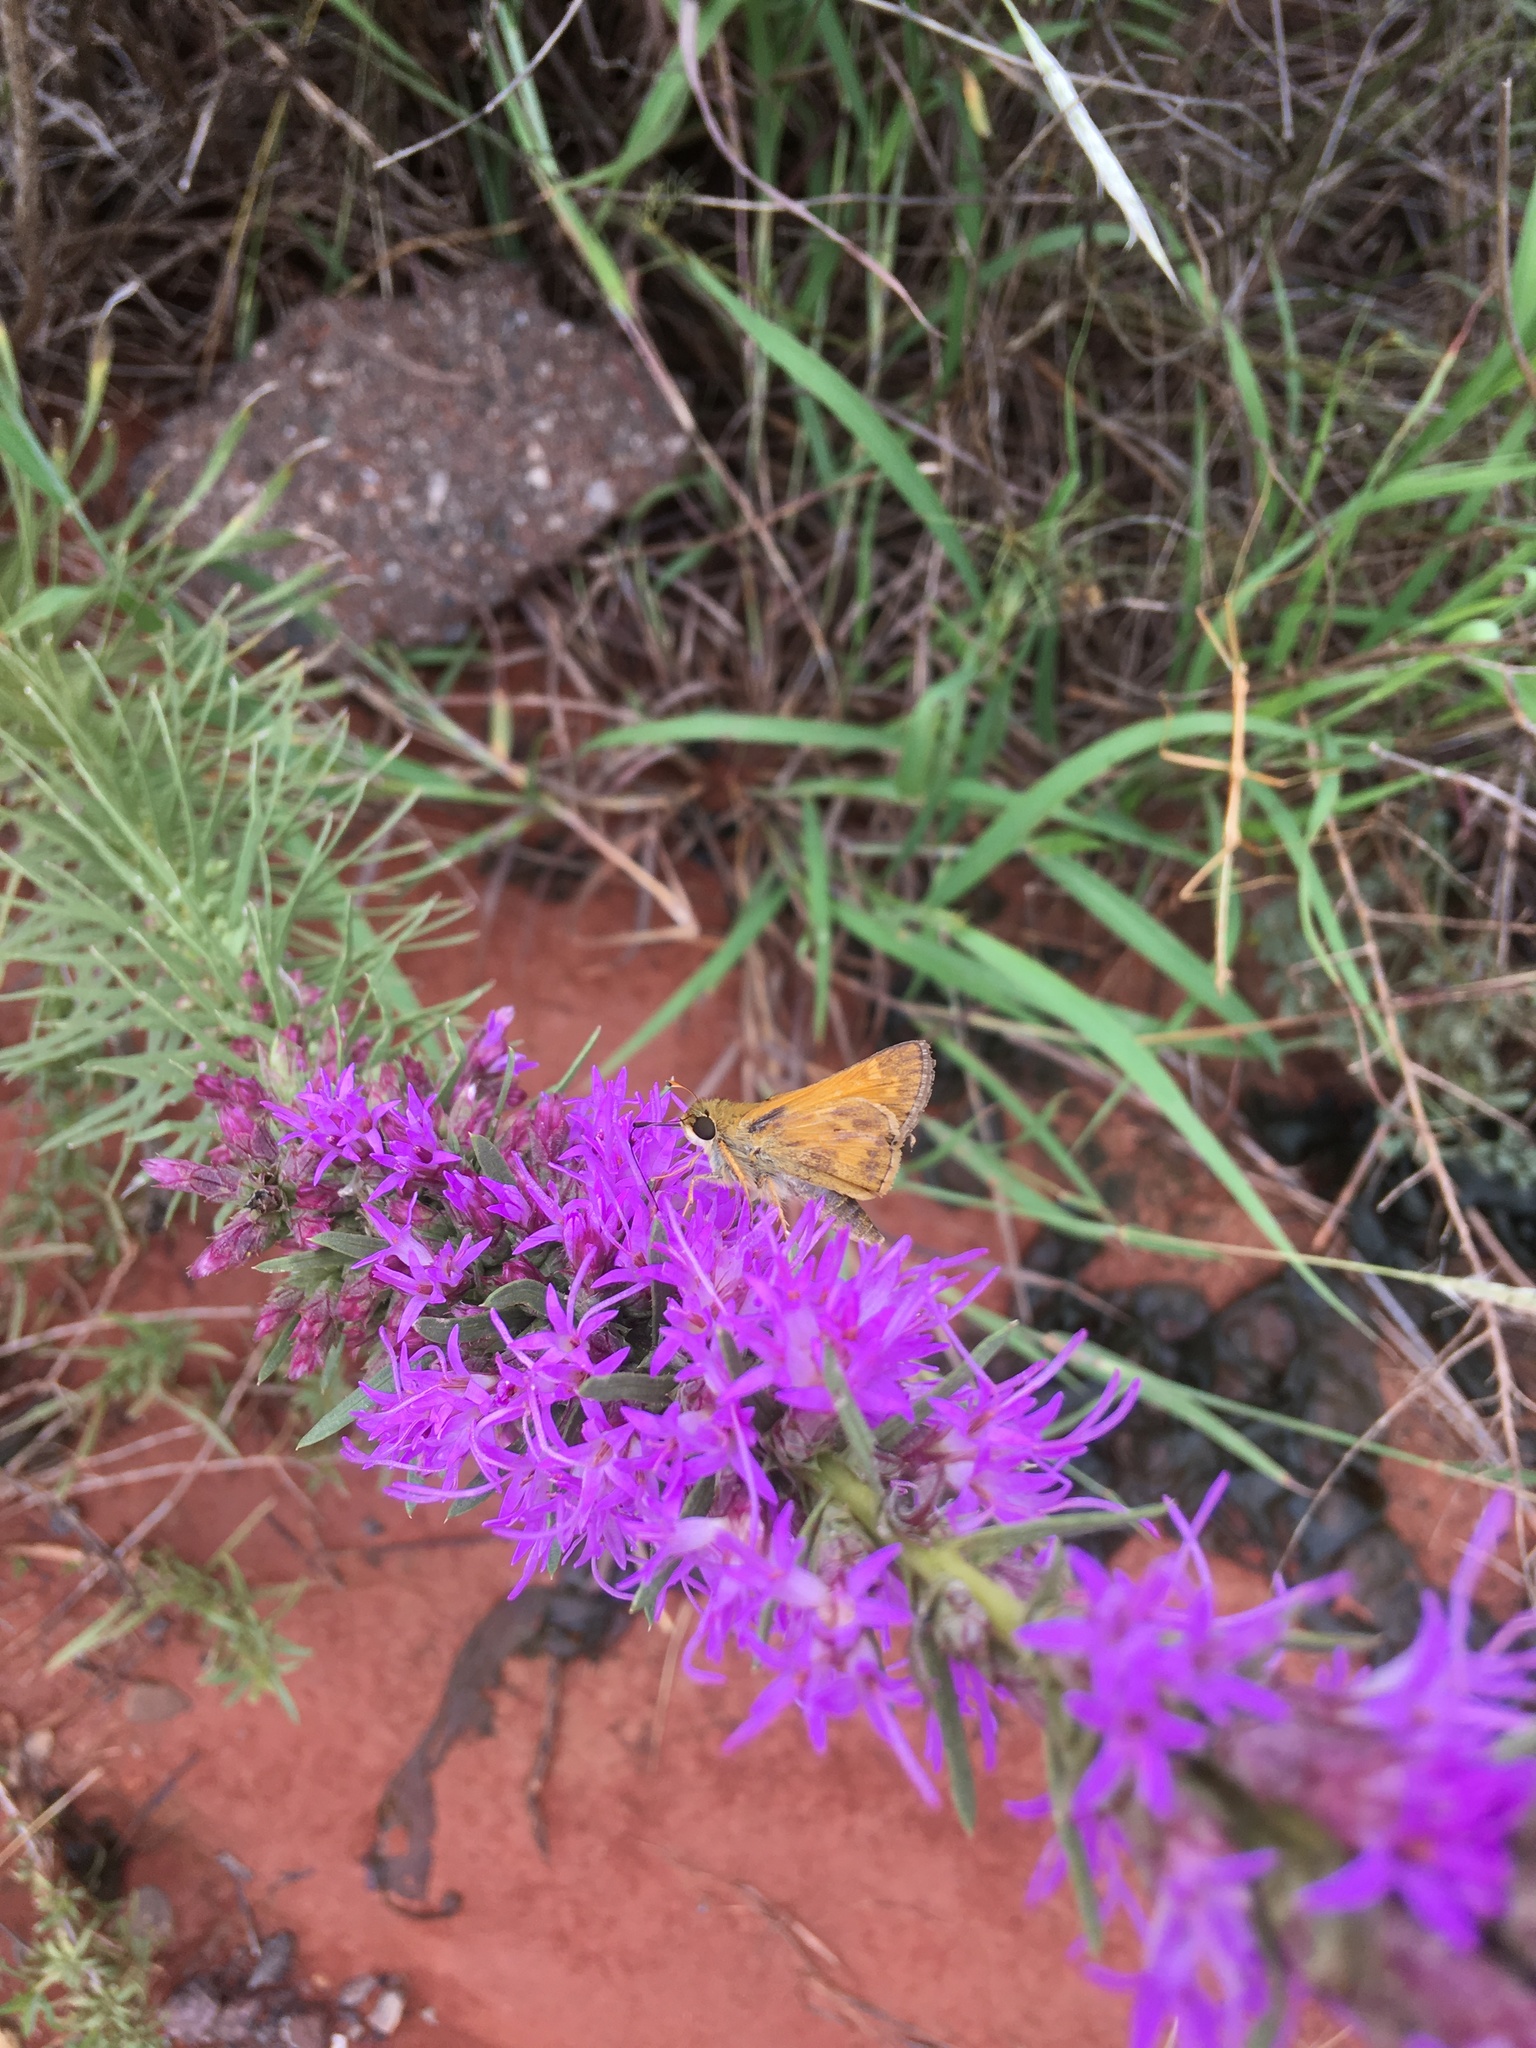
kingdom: Animalia
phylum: Arthropoda
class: Insecta
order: Lepidoptera
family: Hesperiidae
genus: Atalopedes
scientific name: Atalopedes
